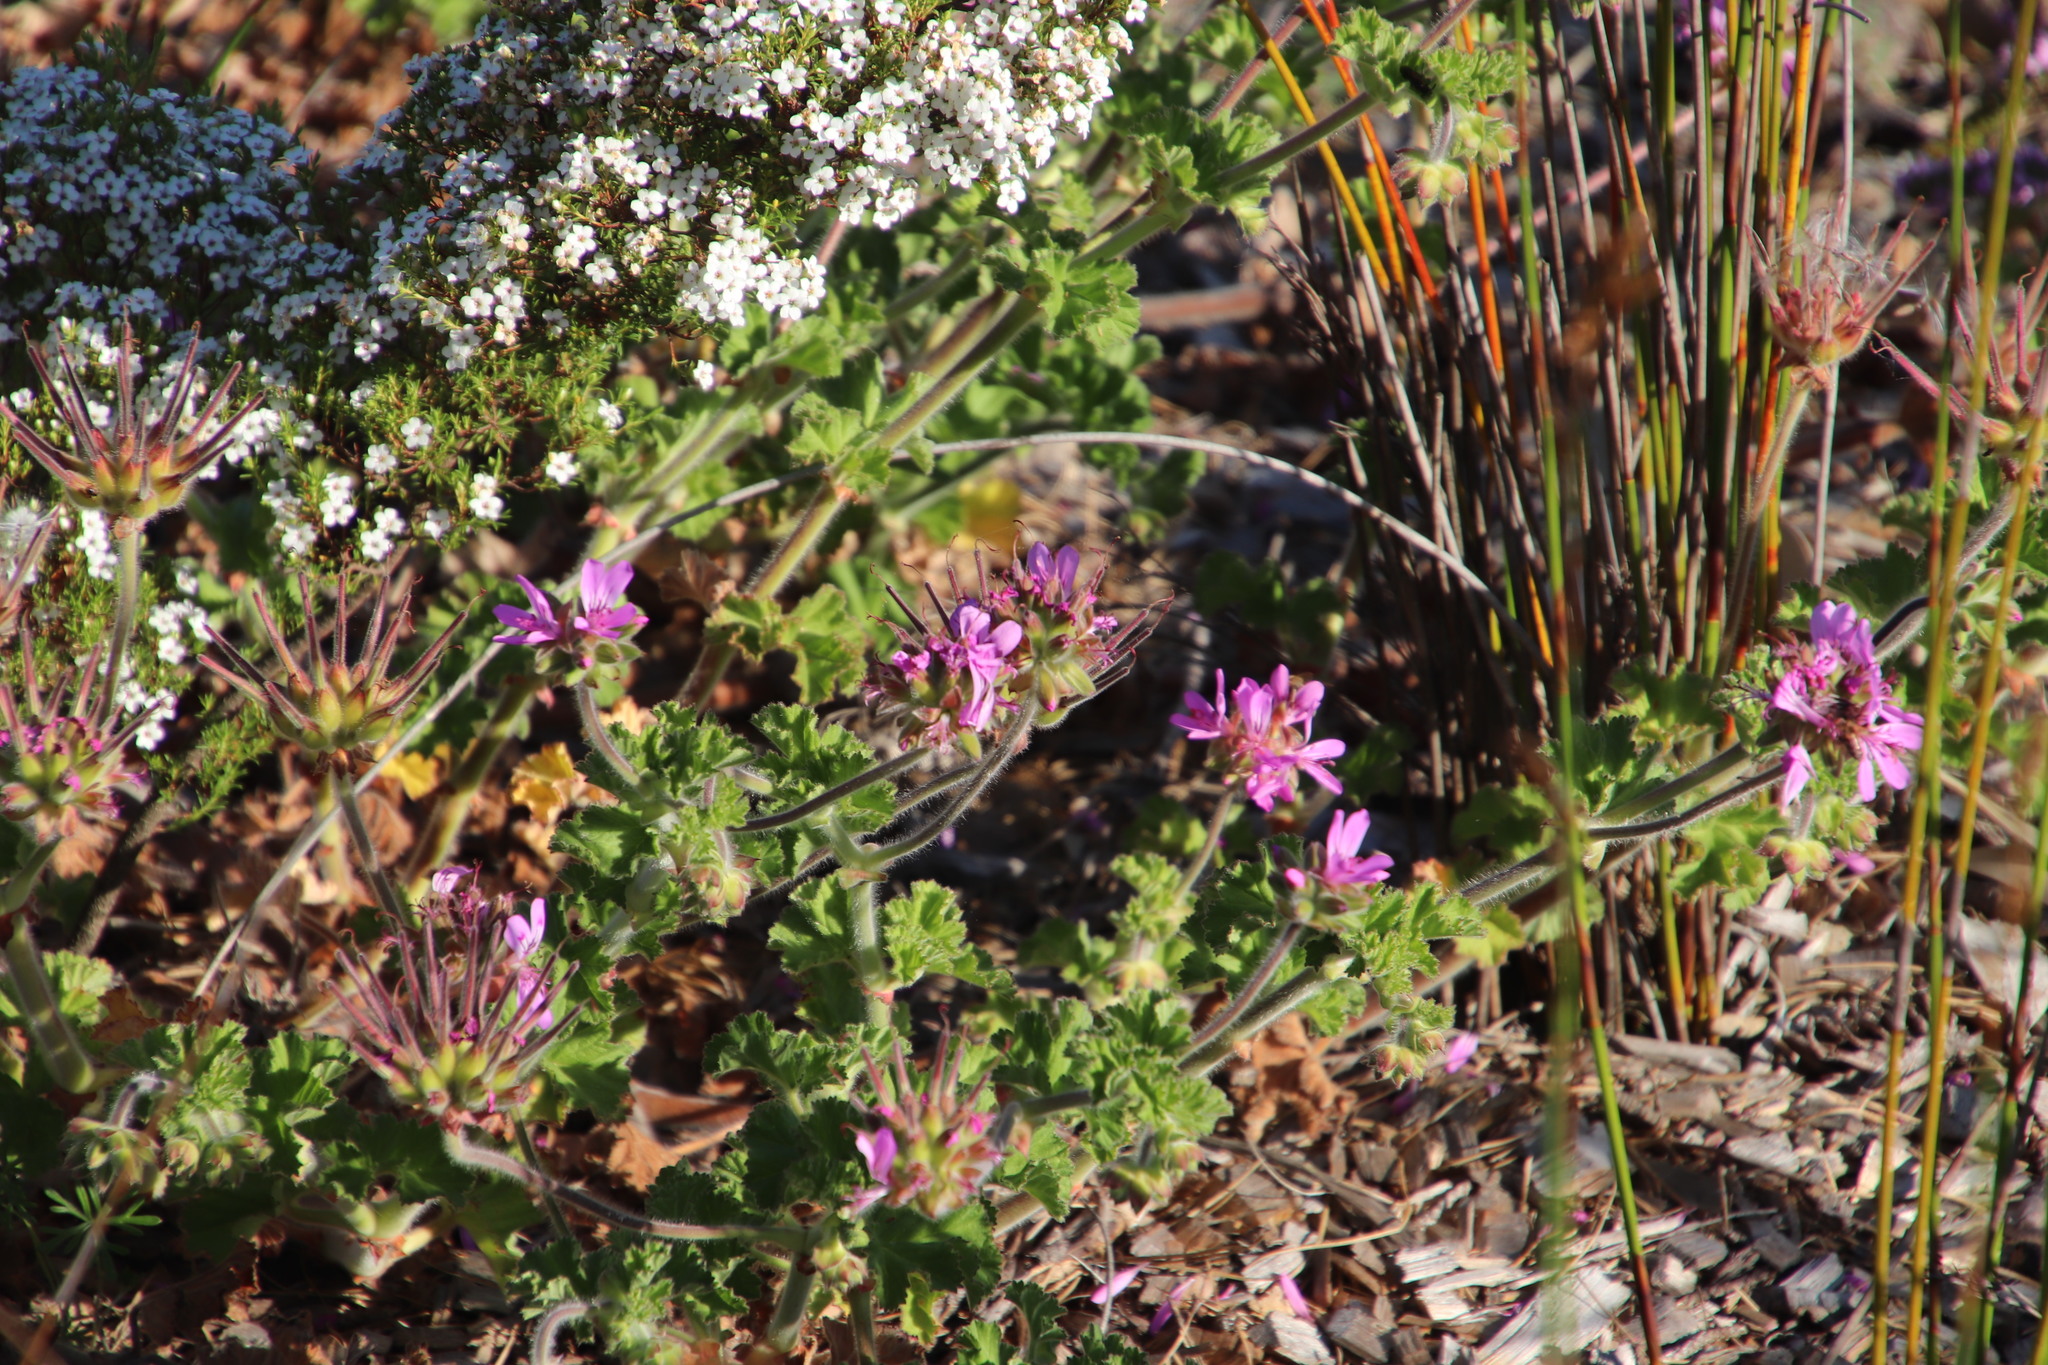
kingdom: Plantae
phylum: Tracheophyta
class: Magnoliopsida
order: Geraniales
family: Geraniaceae
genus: Pelargonium
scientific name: Pelargonium capitatum
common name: Rose scented geranium
